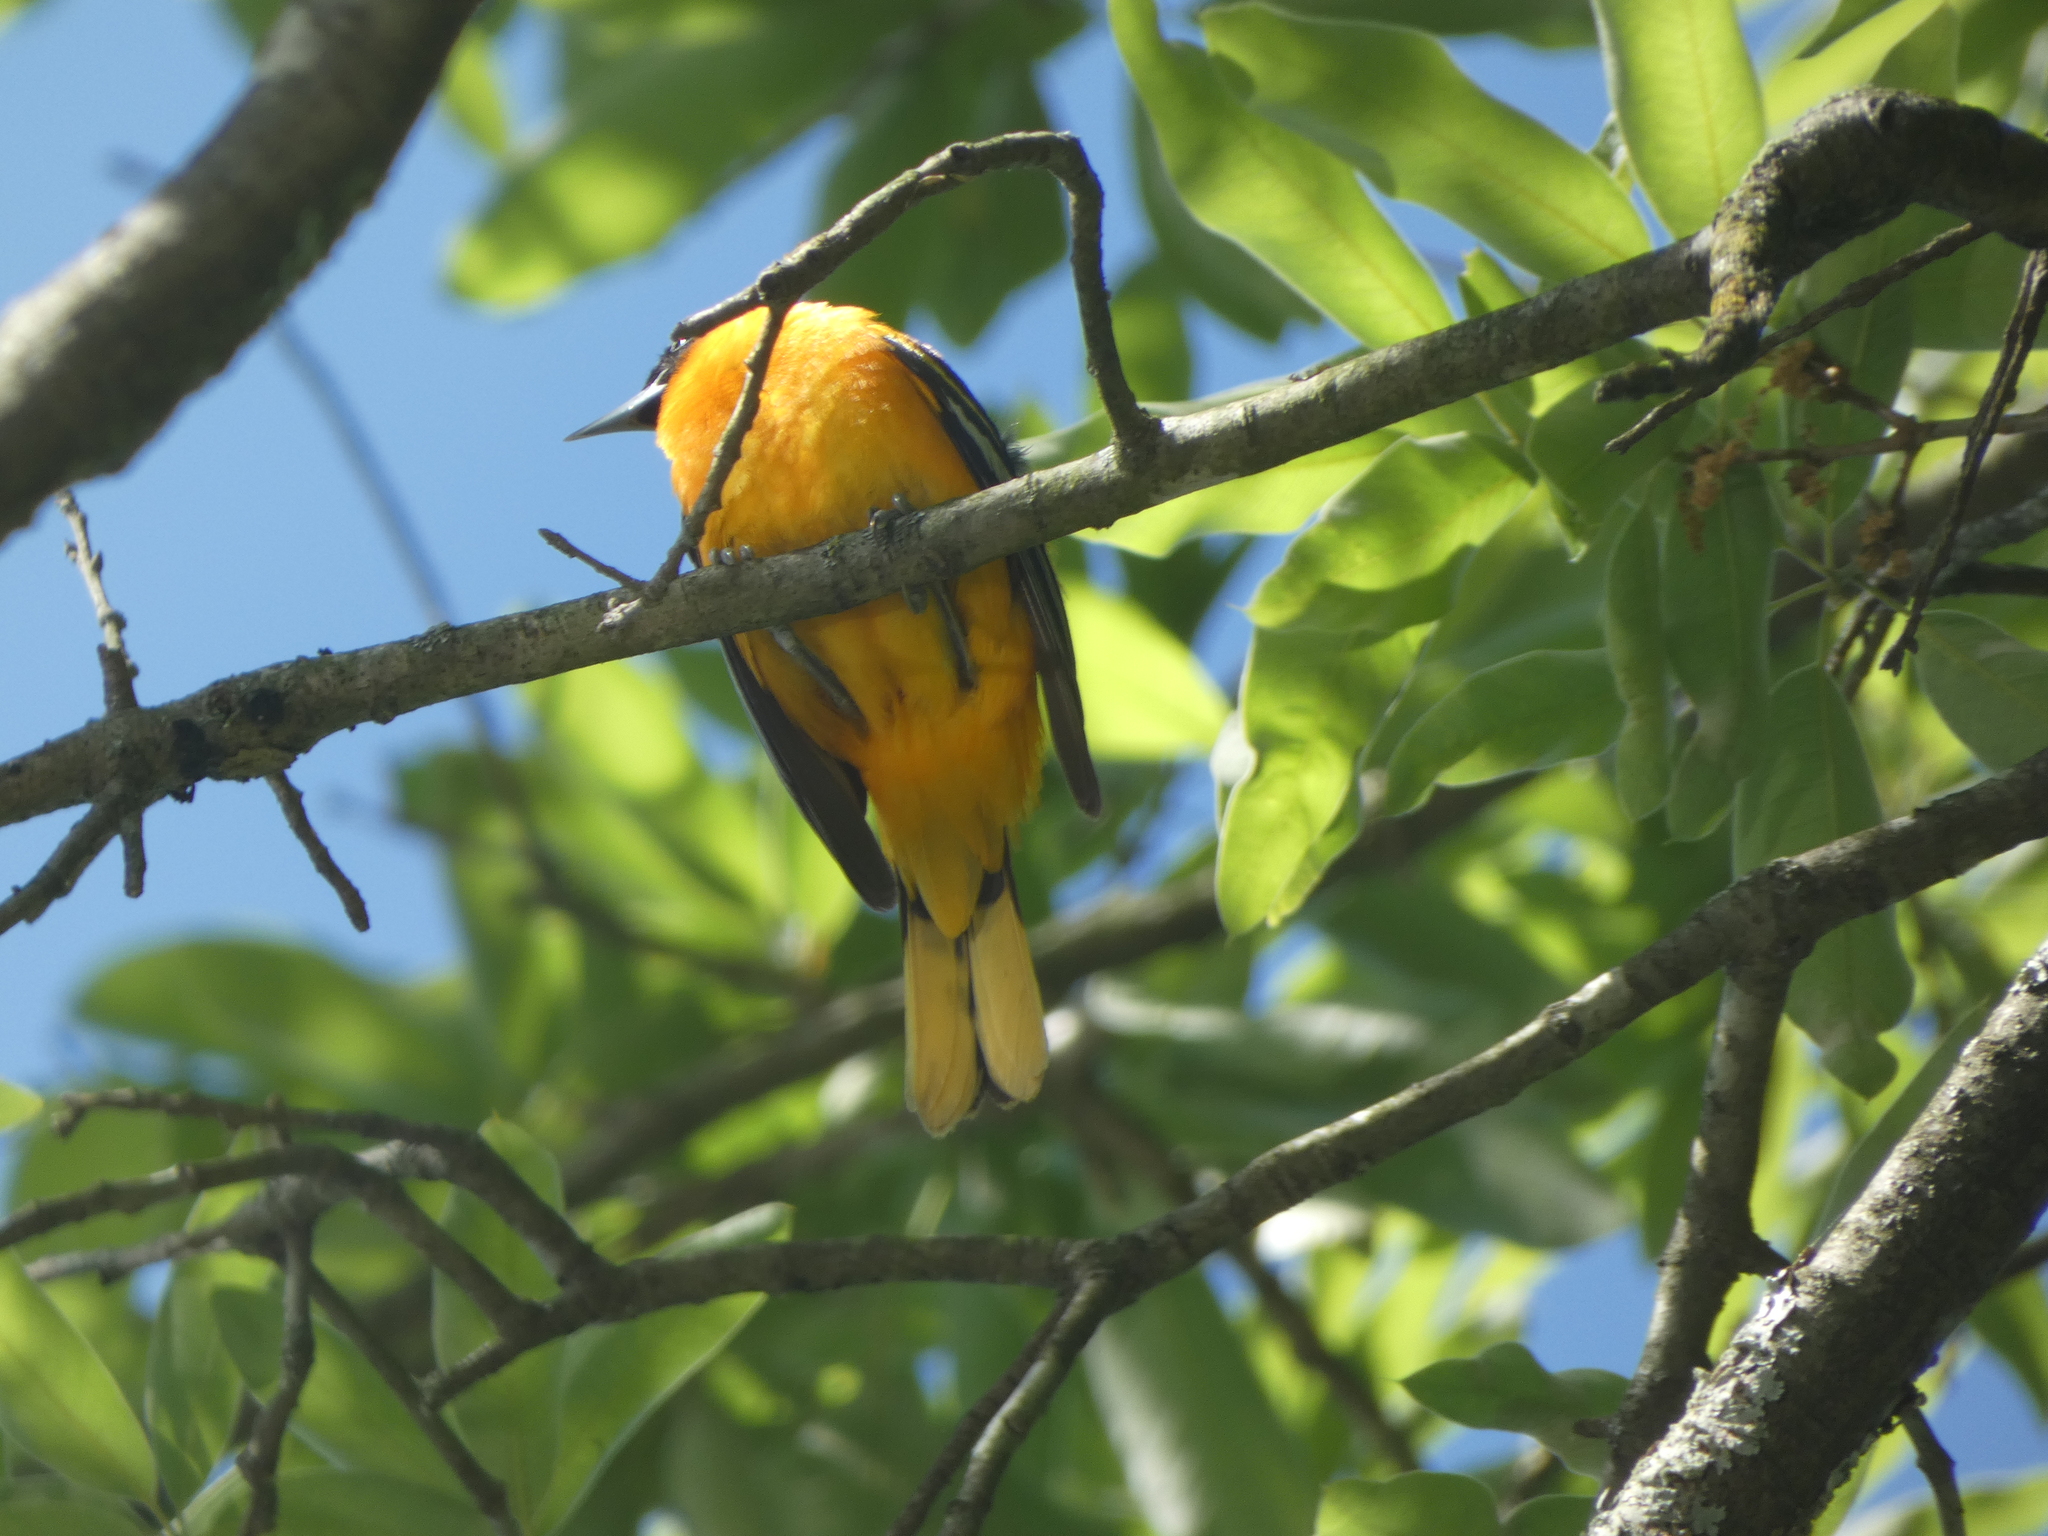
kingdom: Animalia
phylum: Chordata
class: Aves
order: Passeriformes
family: Icteridae
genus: Icterus
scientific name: Icterus galbula
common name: Baltimore oriole
